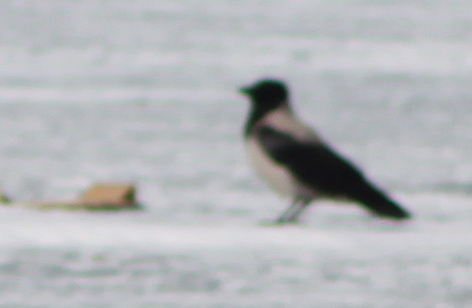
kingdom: Animalia
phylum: Chordata
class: Aves
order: Passeriformes
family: Corvidae
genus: Corvus
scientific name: Corvus cornix
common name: Hooded crow
